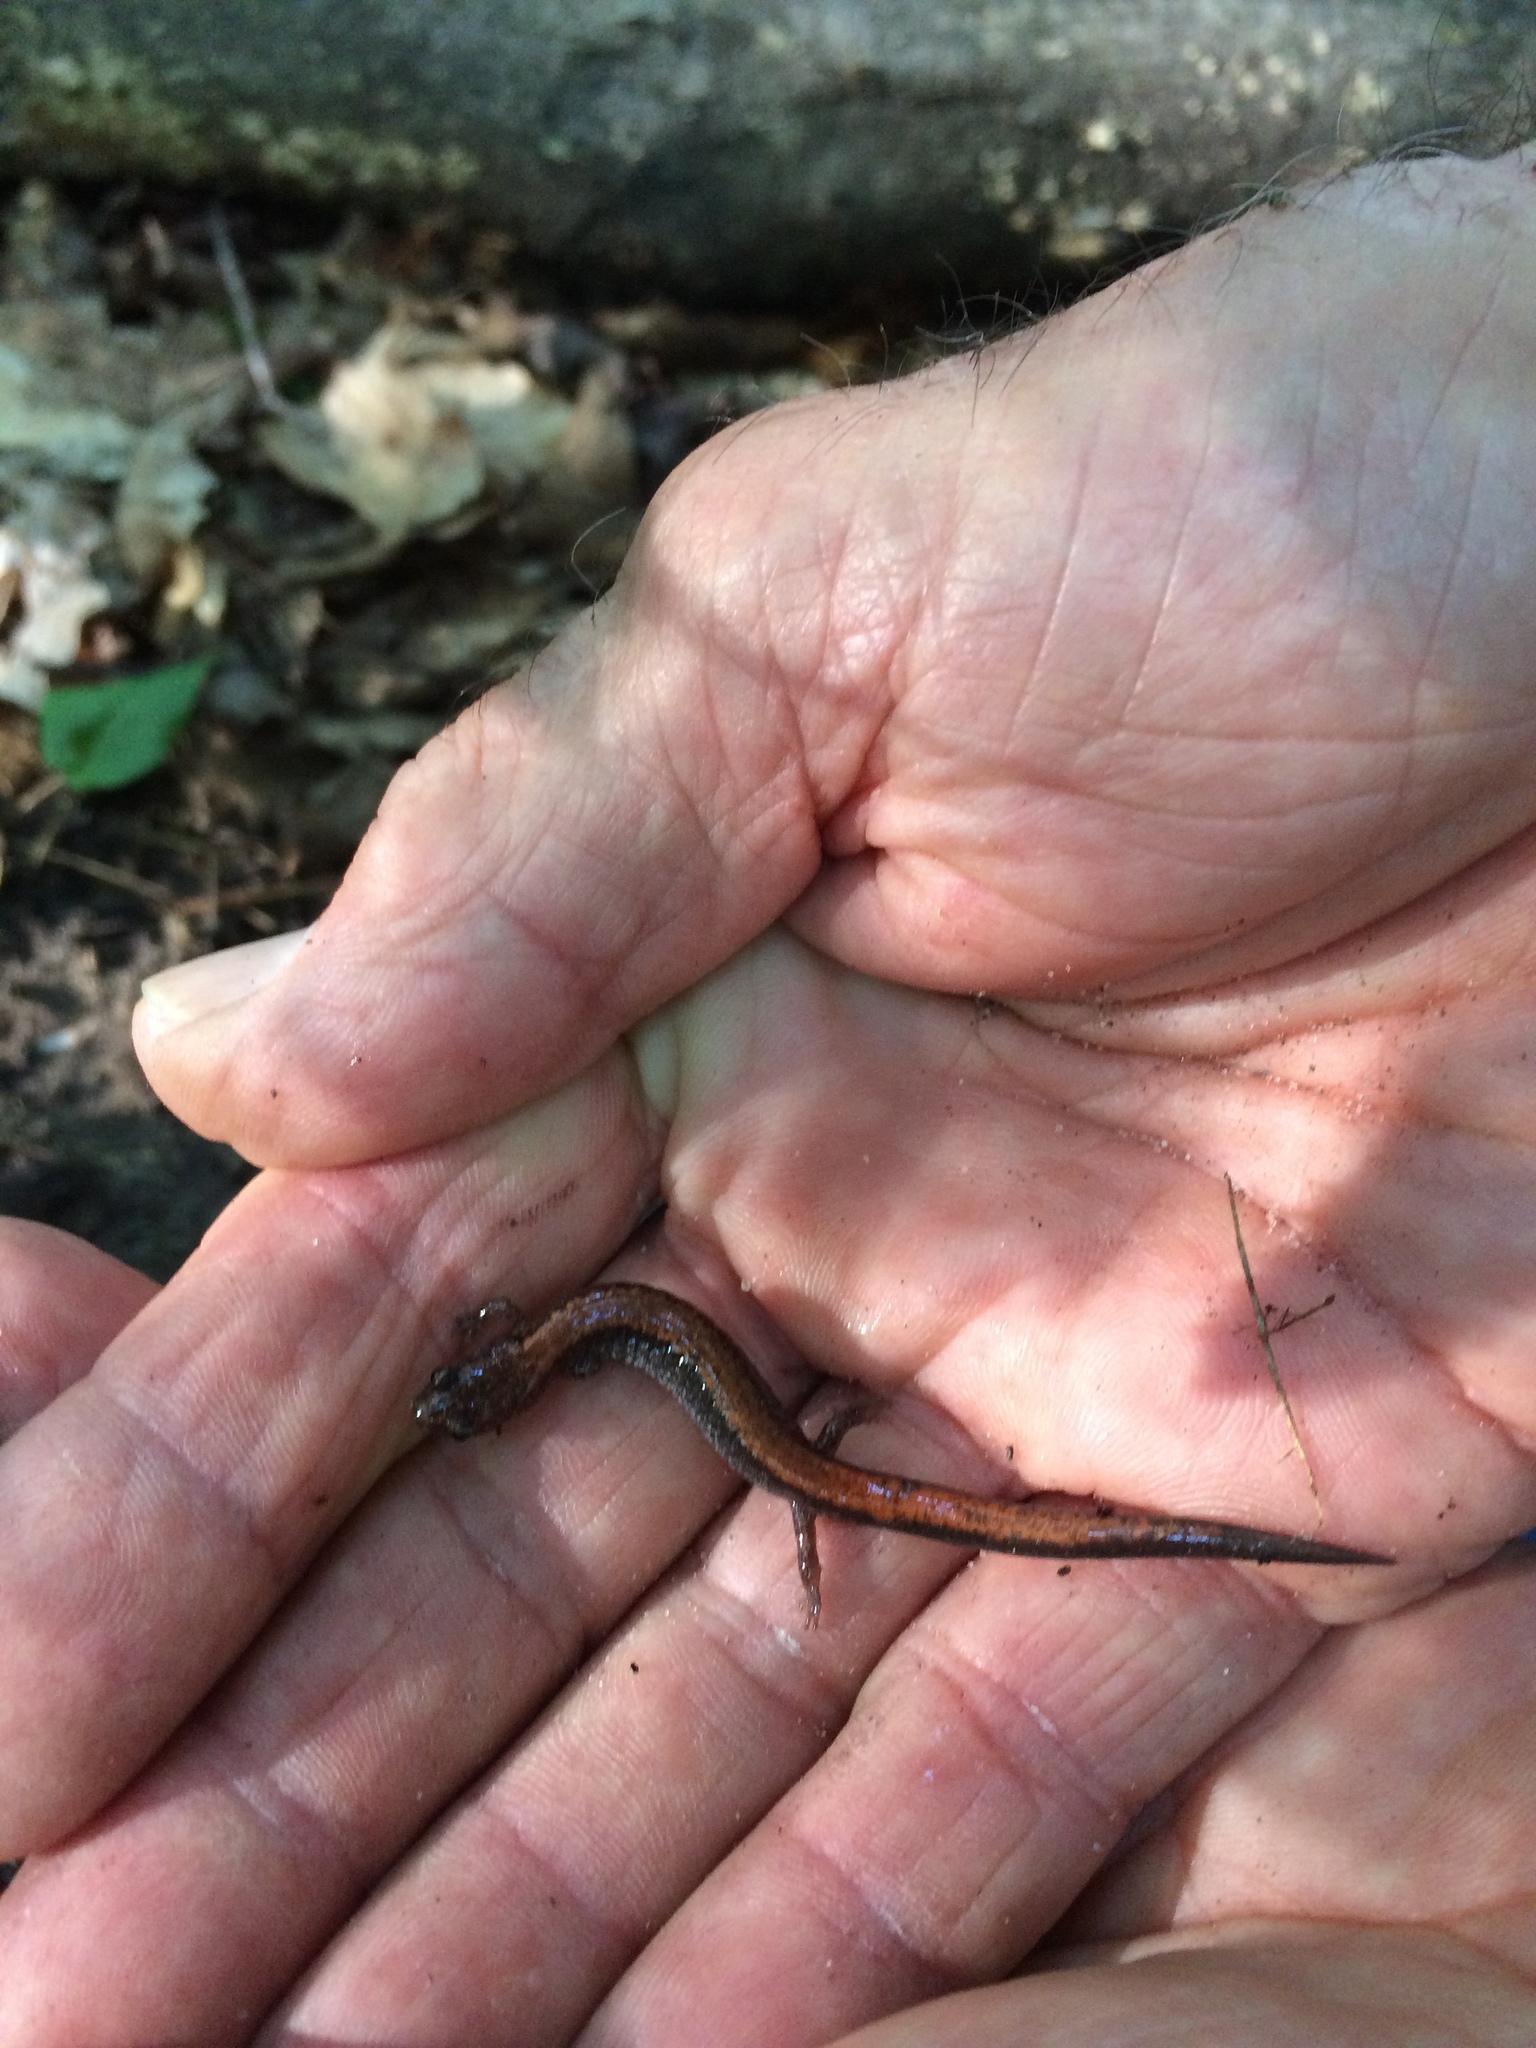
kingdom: Animalia
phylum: Chordata
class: Amphibia
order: Caudata
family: Plethodontidae
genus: Plethodon
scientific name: Plethodon cinereus
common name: Redback salamander
